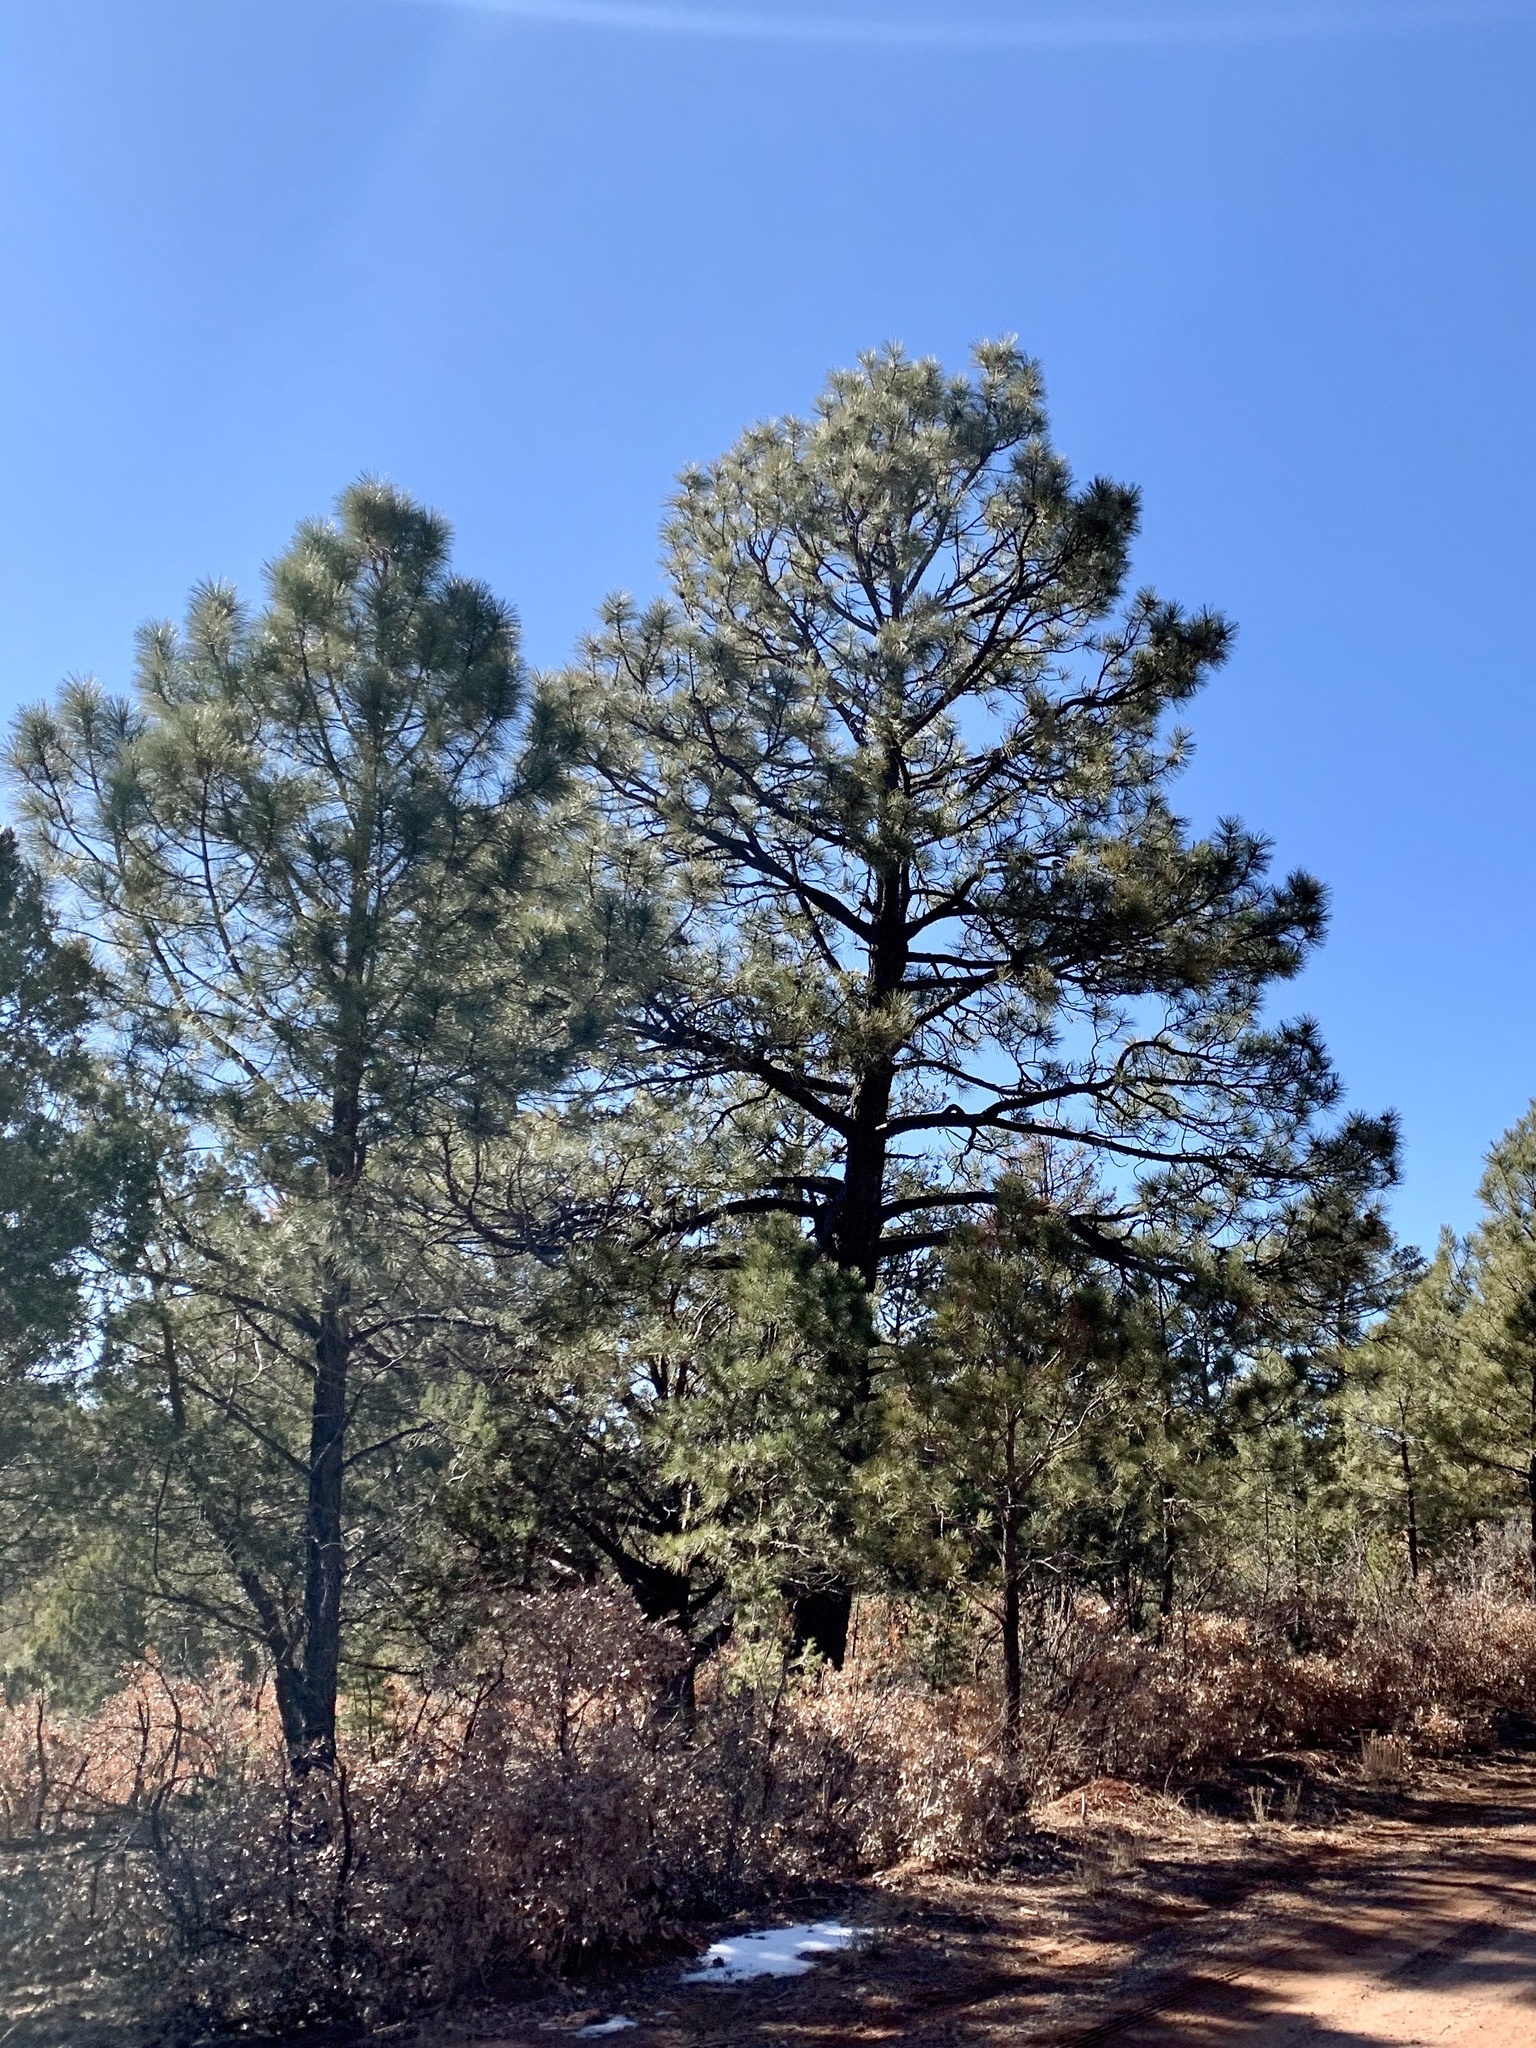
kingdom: Plantae
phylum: Tracheophyta
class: Pinopsida
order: Pinales
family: Pinaceae
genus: Pinus
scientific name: Pinus ponderosa
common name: Western yellow-pine
